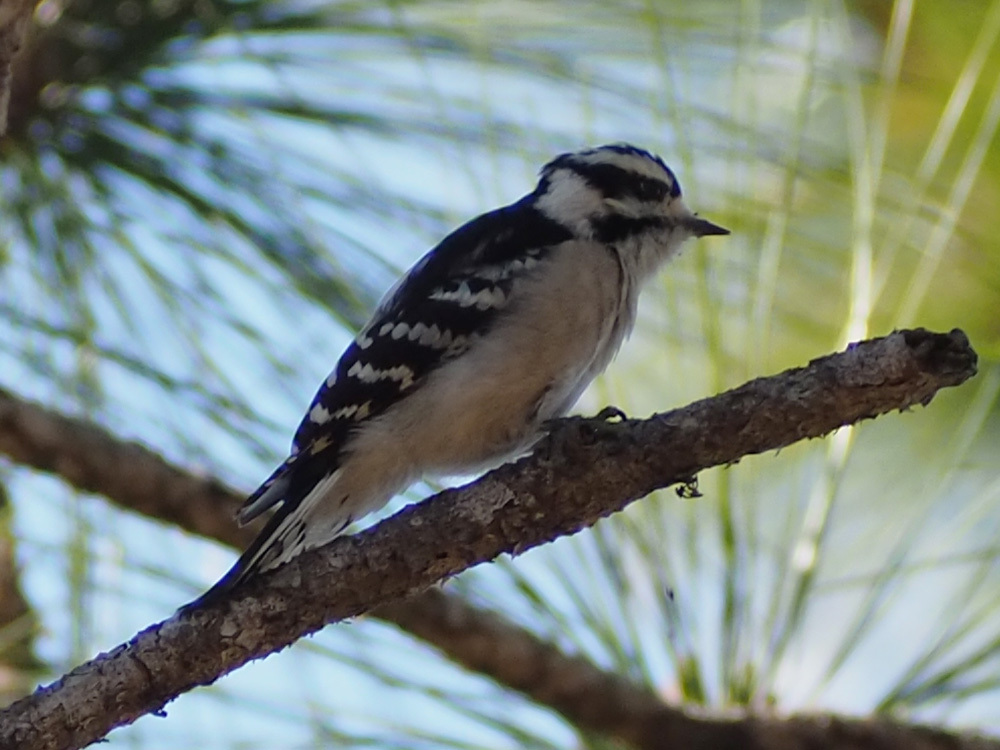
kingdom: Animalia
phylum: Chordata
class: Aves
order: Piciformes
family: Picidae
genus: Dryobates
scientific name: Dryobates pubescens
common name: Downy woodpecker
